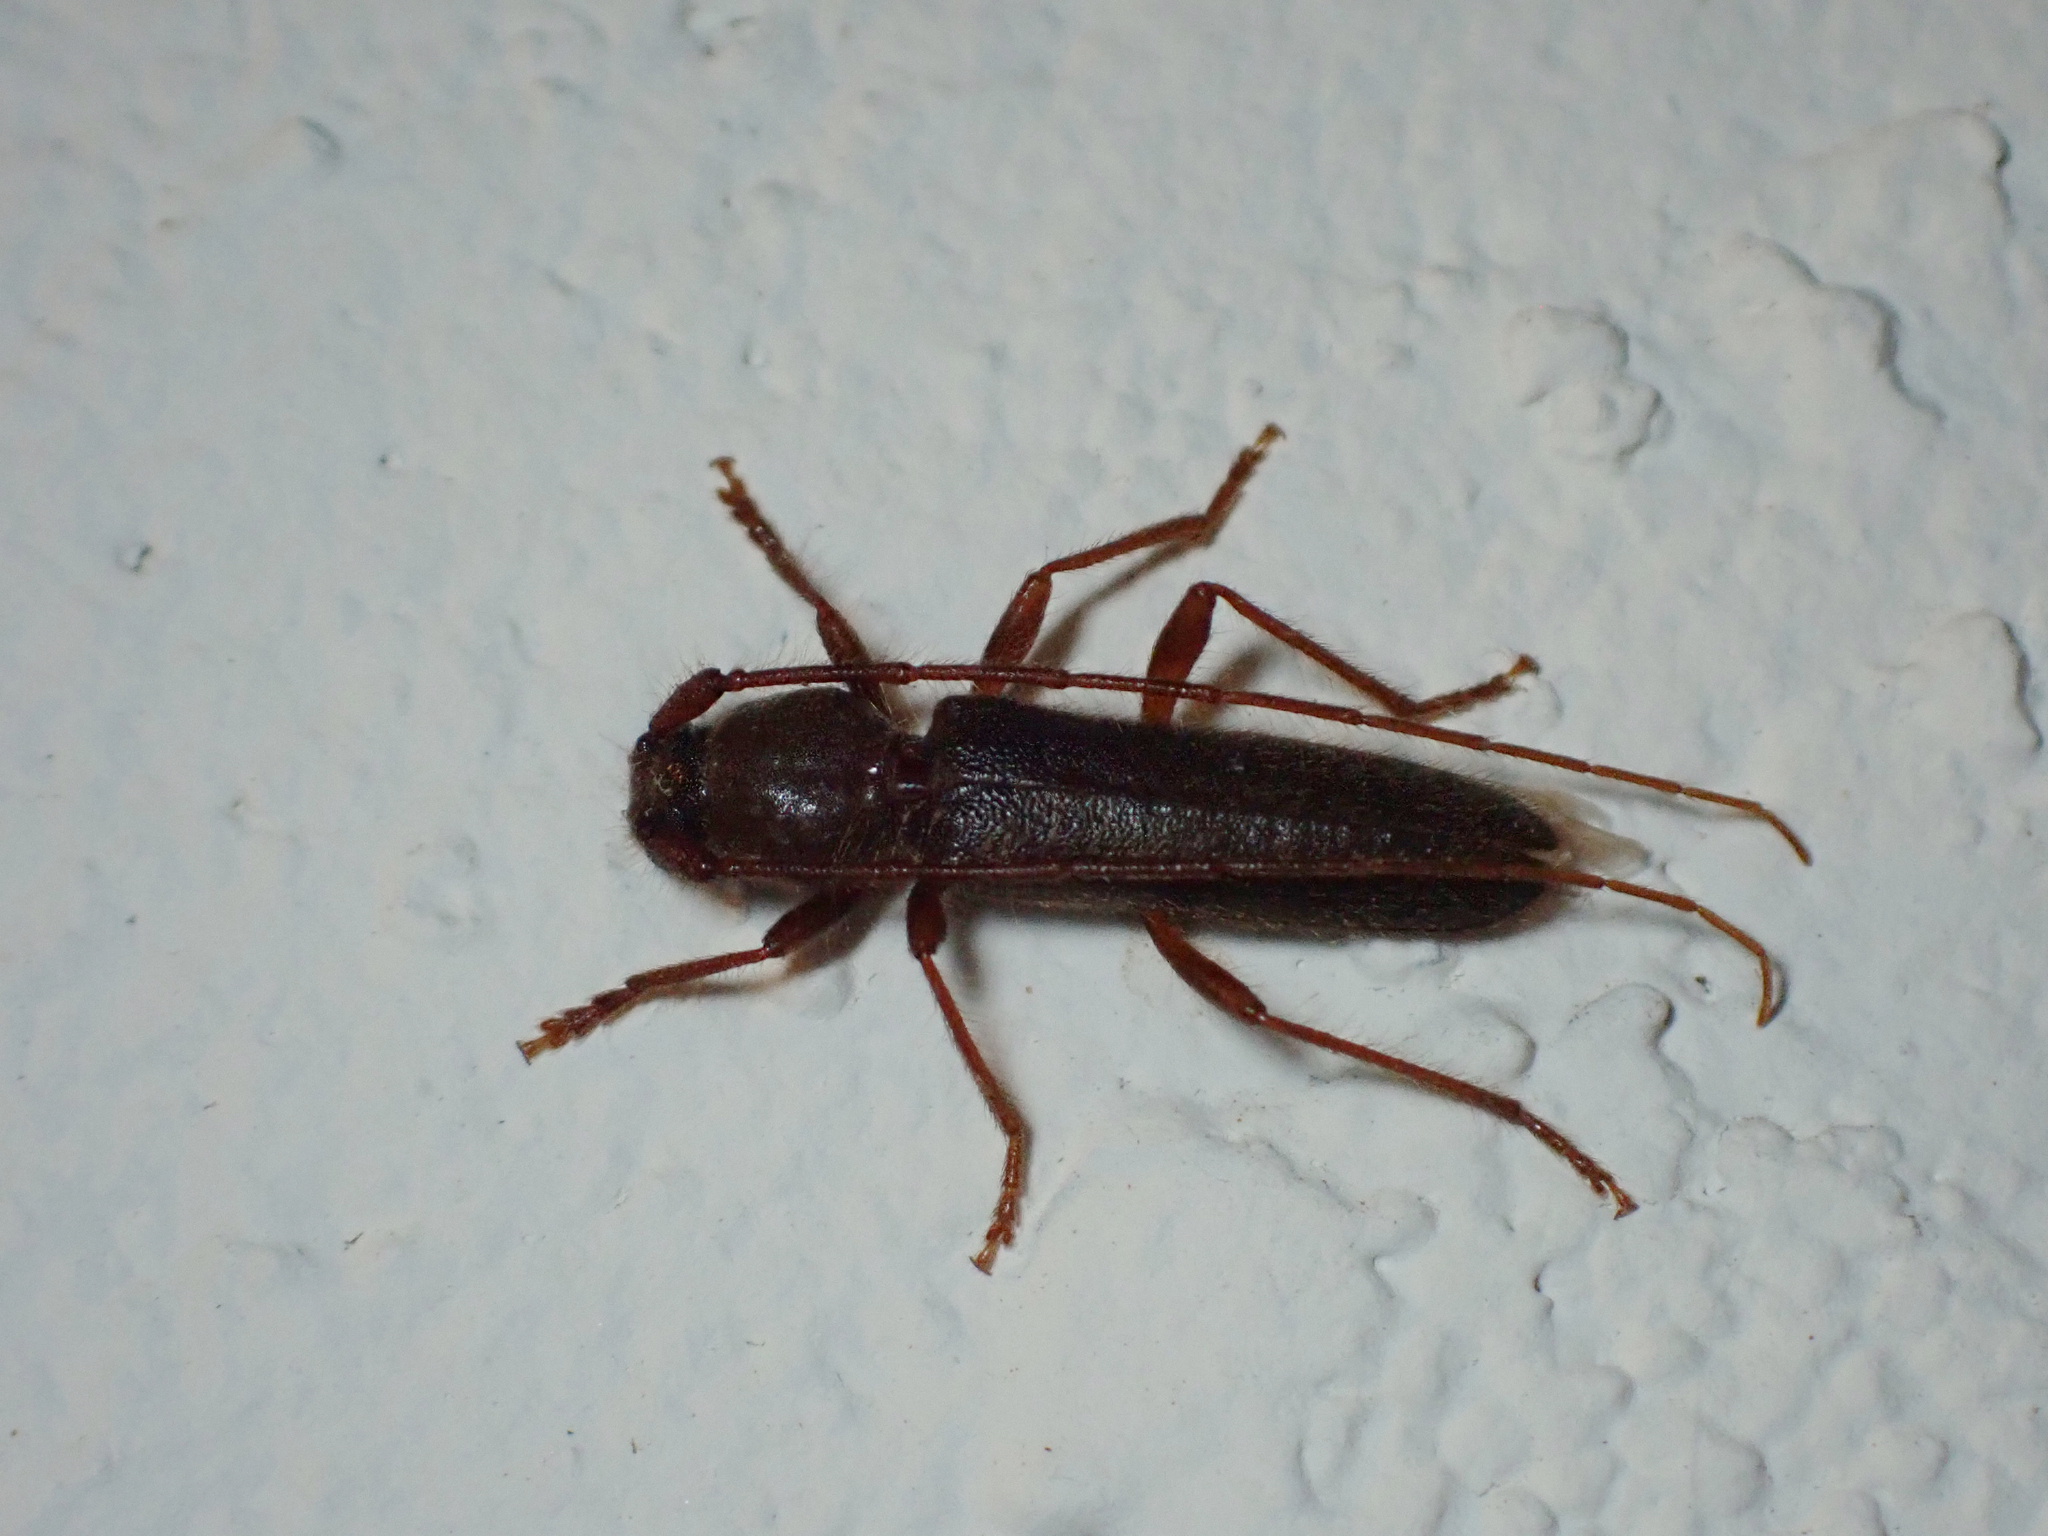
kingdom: Animalia
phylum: Arthropoda
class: Insecta
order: Coleoptera
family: Cerambycidae
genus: Paranoplium
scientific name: Paranoplium gracile
